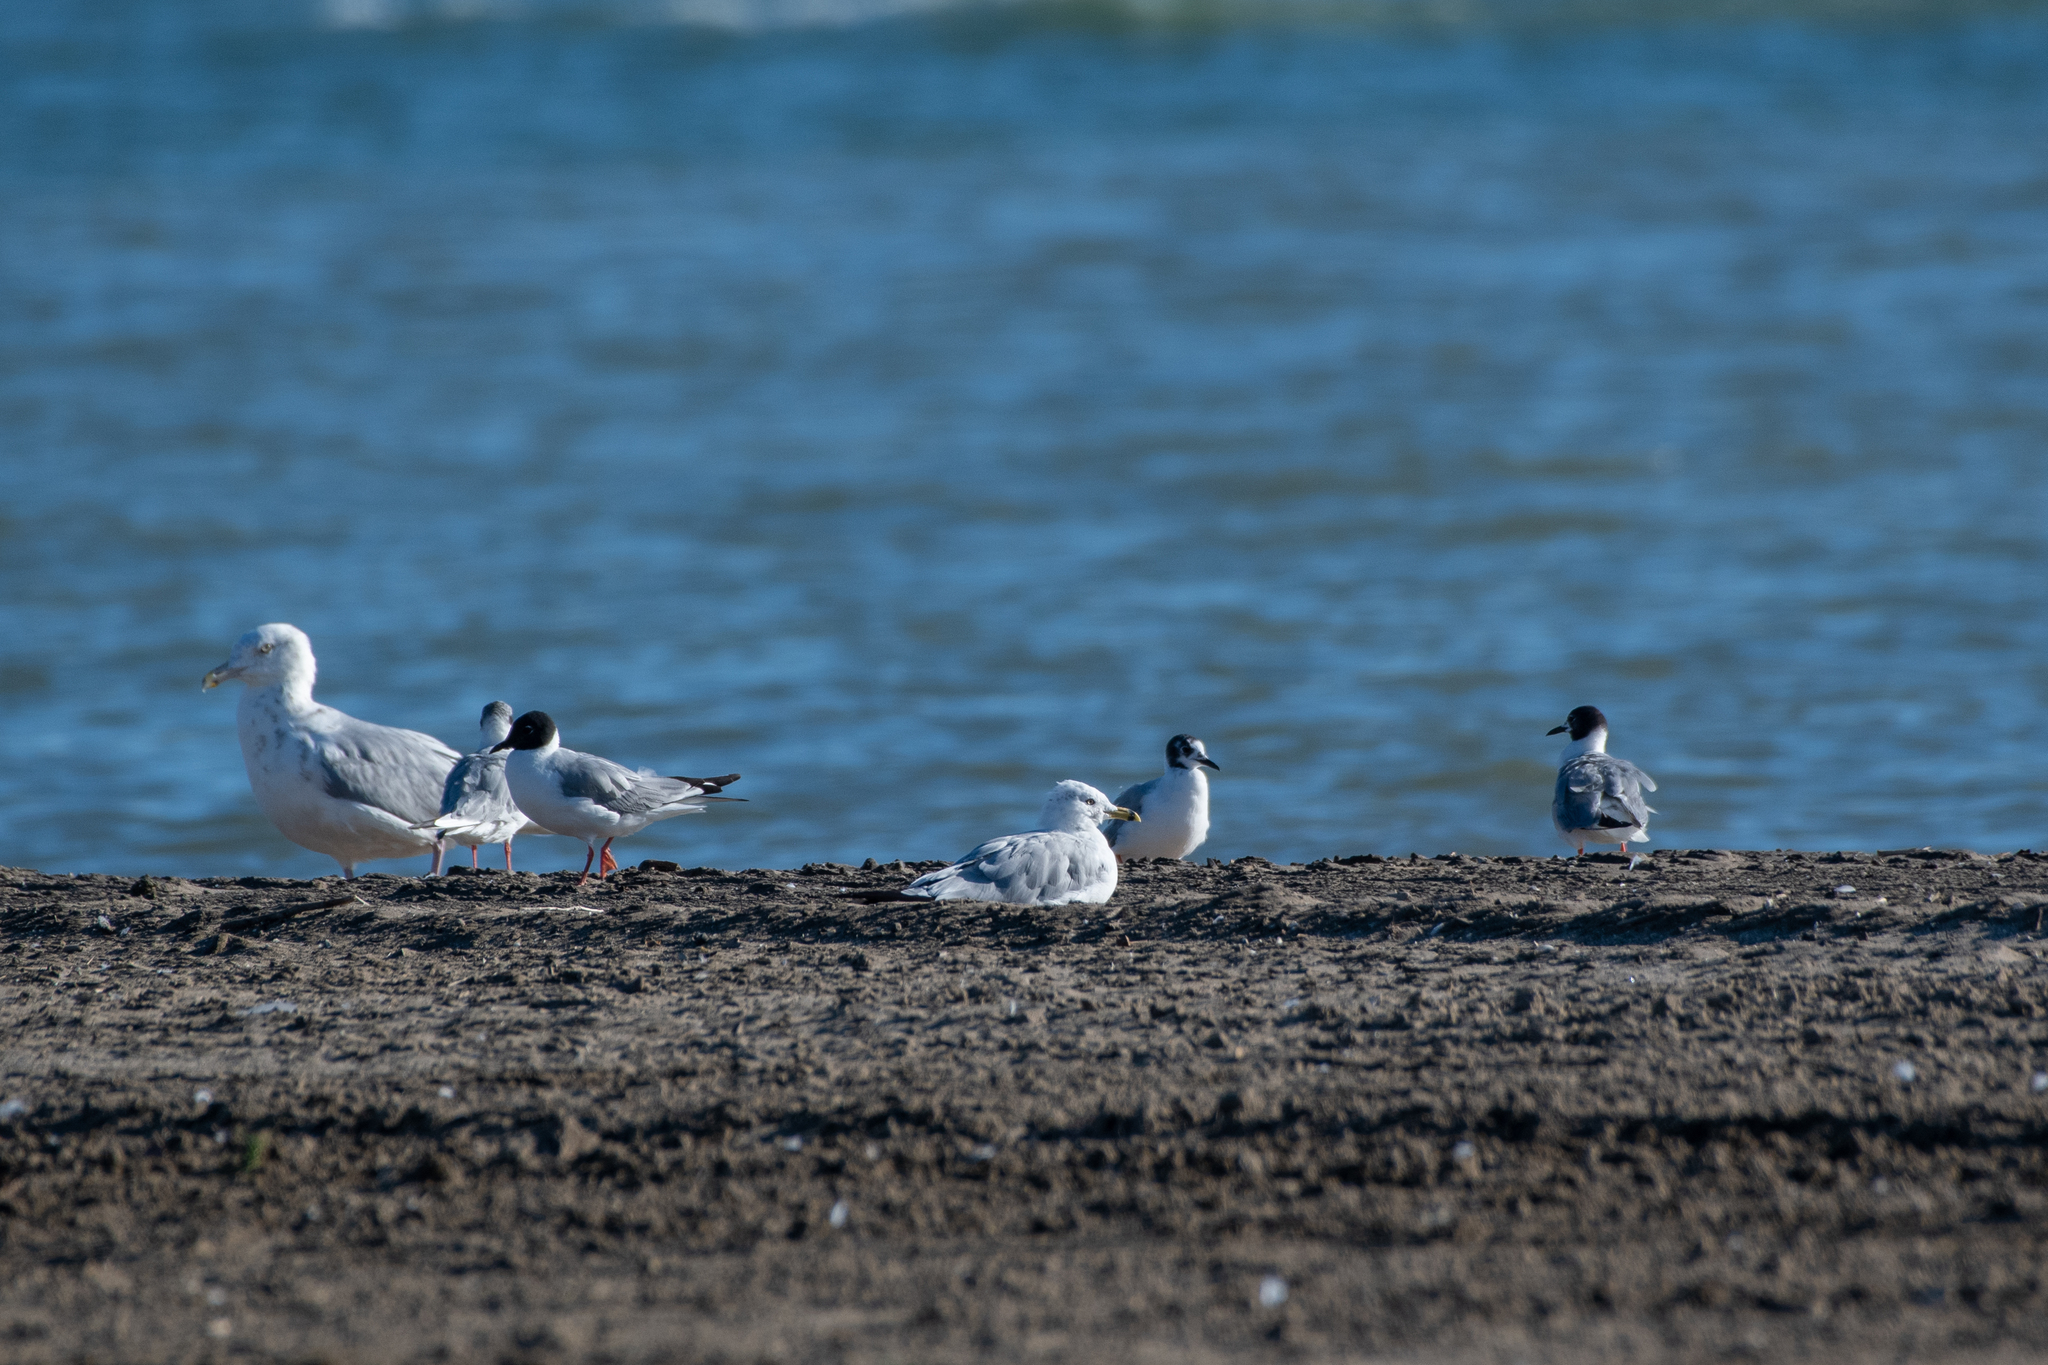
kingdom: Animalia
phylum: Chordata
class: Aves
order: Charadriiformes
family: Laridae
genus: Chroicocephalus
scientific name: Chroicocephalus philadelphia
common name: Bonaparte's gull
